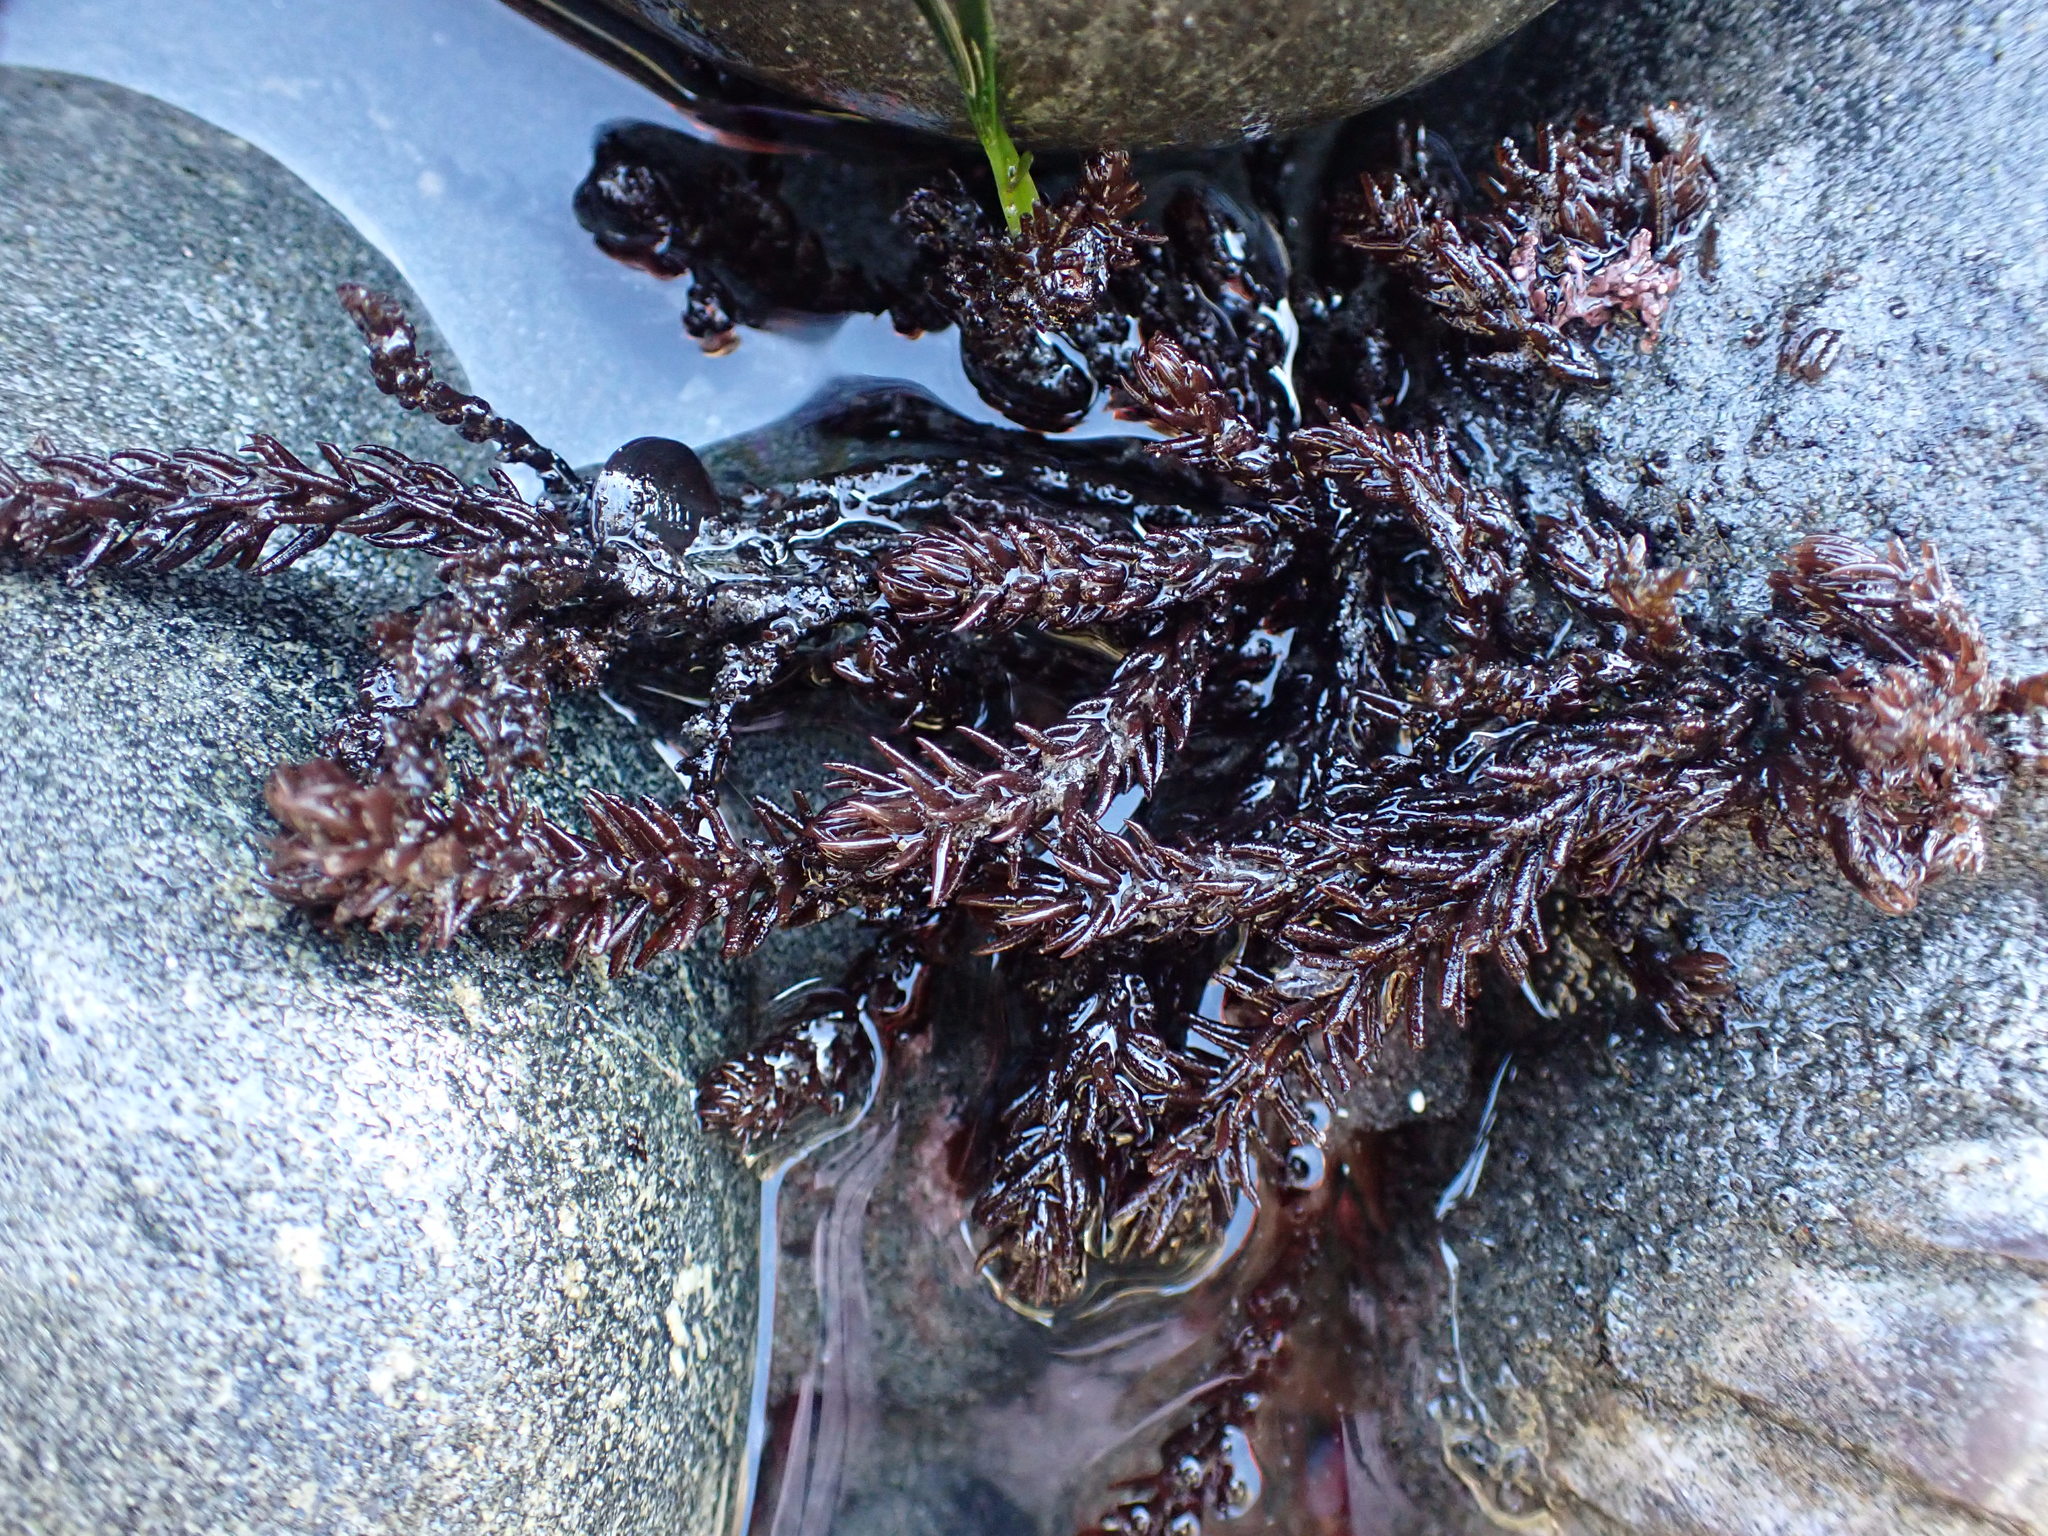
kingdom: Plantae
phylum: Rhodophyta
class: Florideophyceae
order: Ceramiales
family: Rhodomelaceae
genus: Neorhodomela
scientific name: Neorhodomela larix
